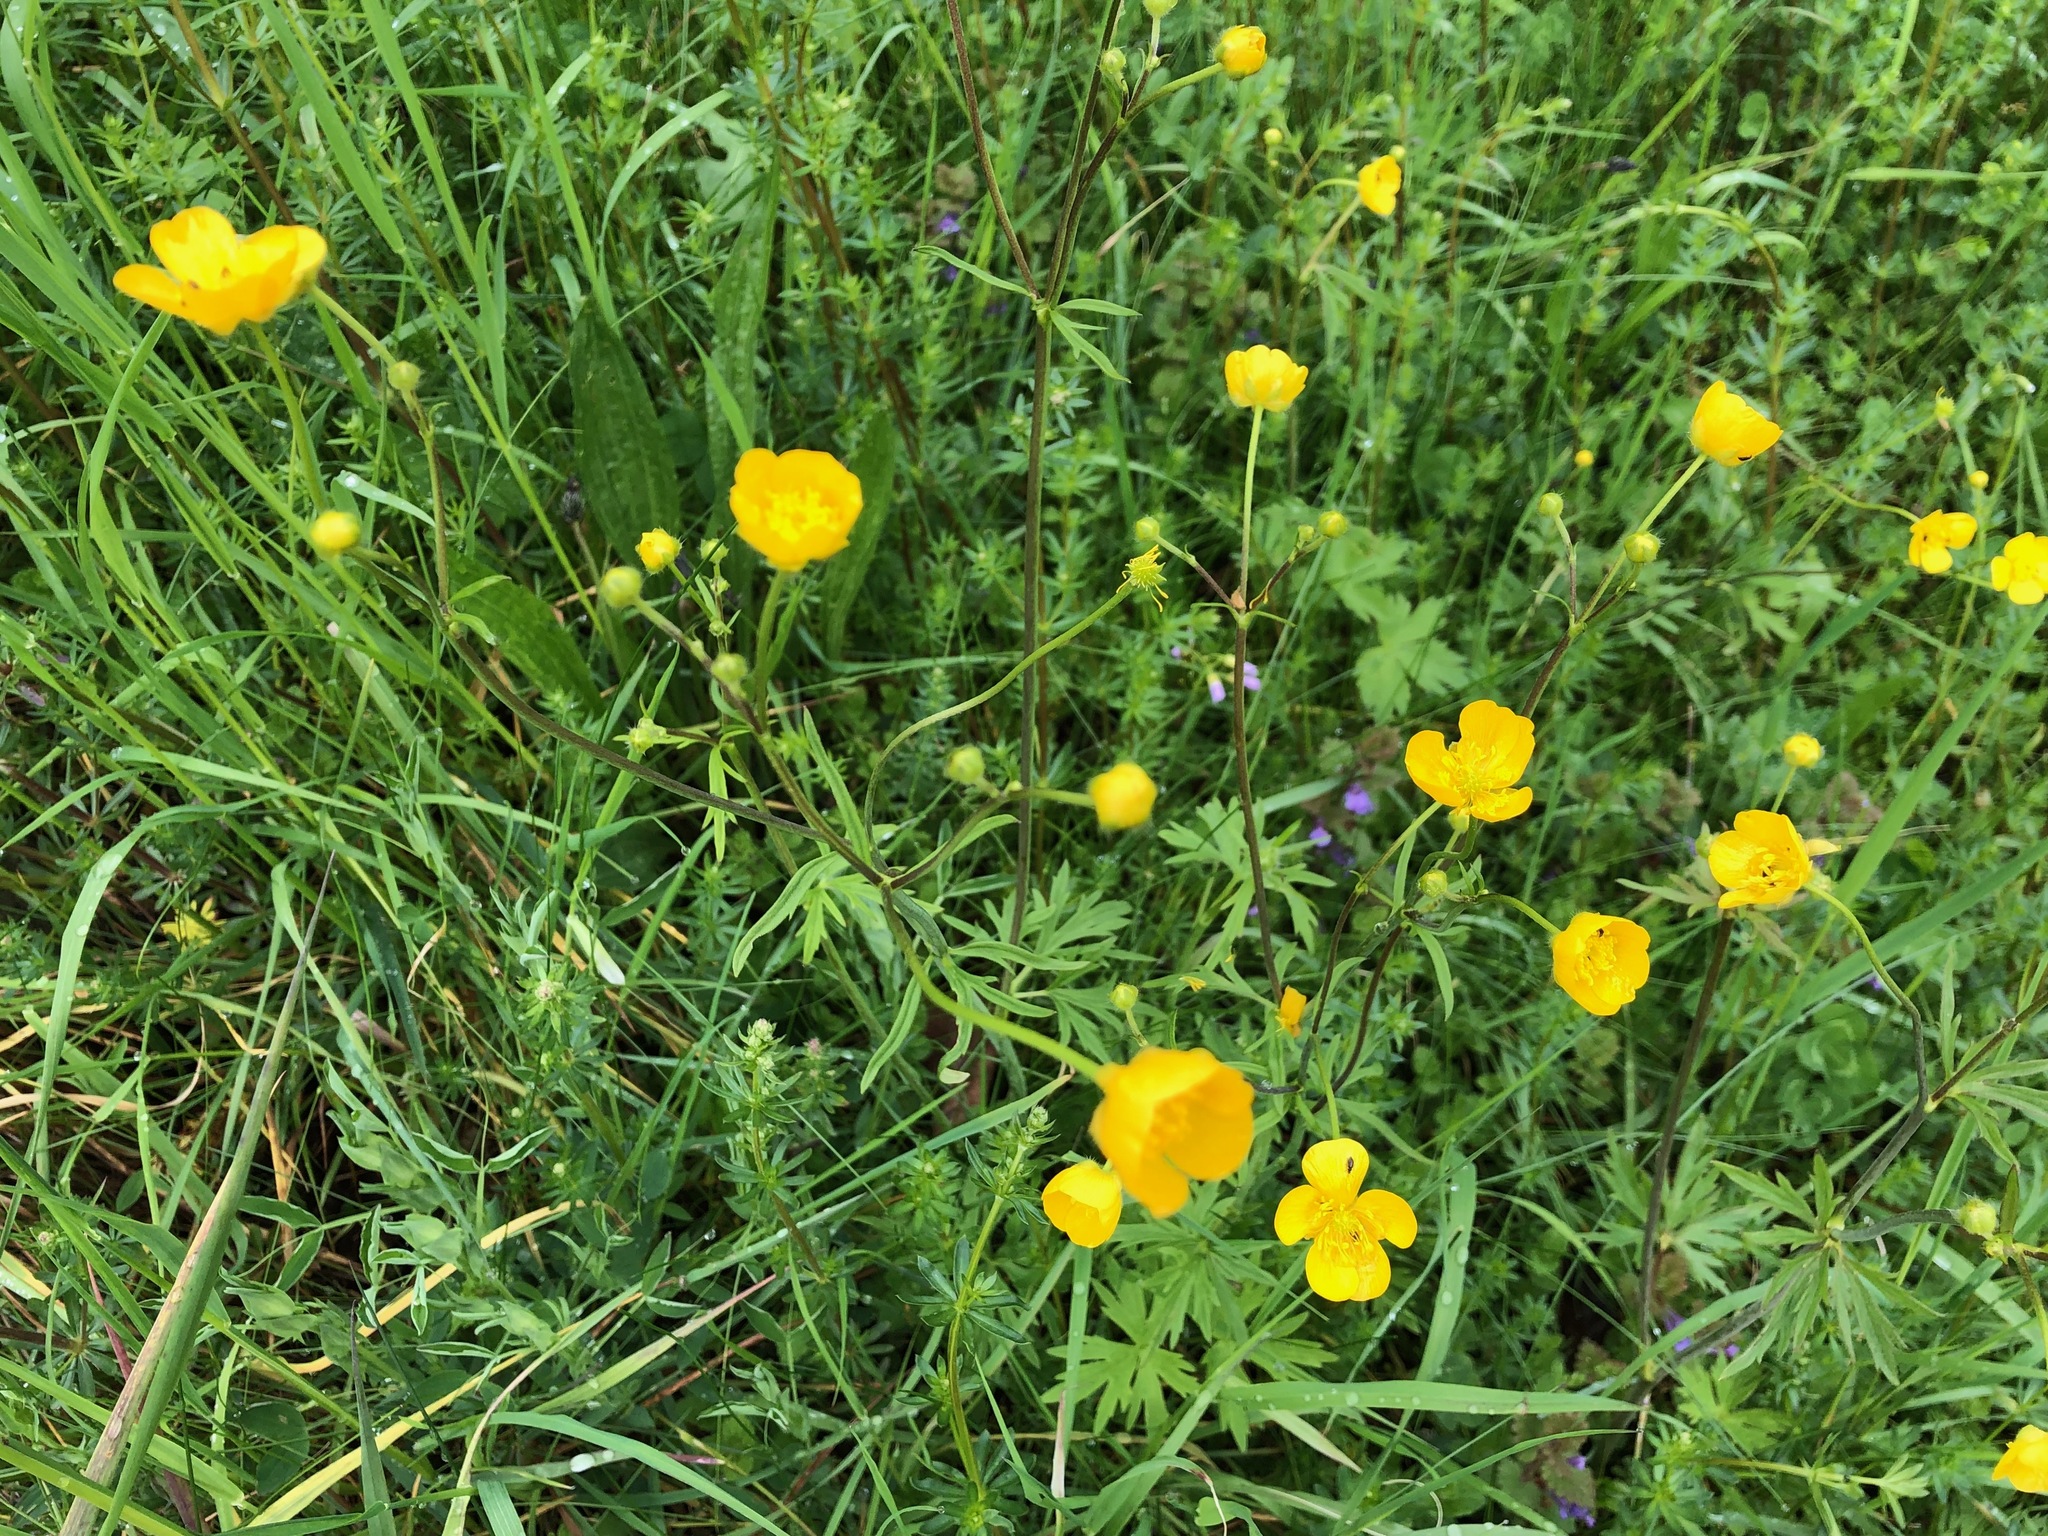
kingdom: Plantae
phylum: Tracheophyta
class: Magnoliopsida
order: Ranunculales
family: Ranunculaceae
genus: Ranunculus
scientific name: Ranunculus acris
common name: Meadow buttercup
